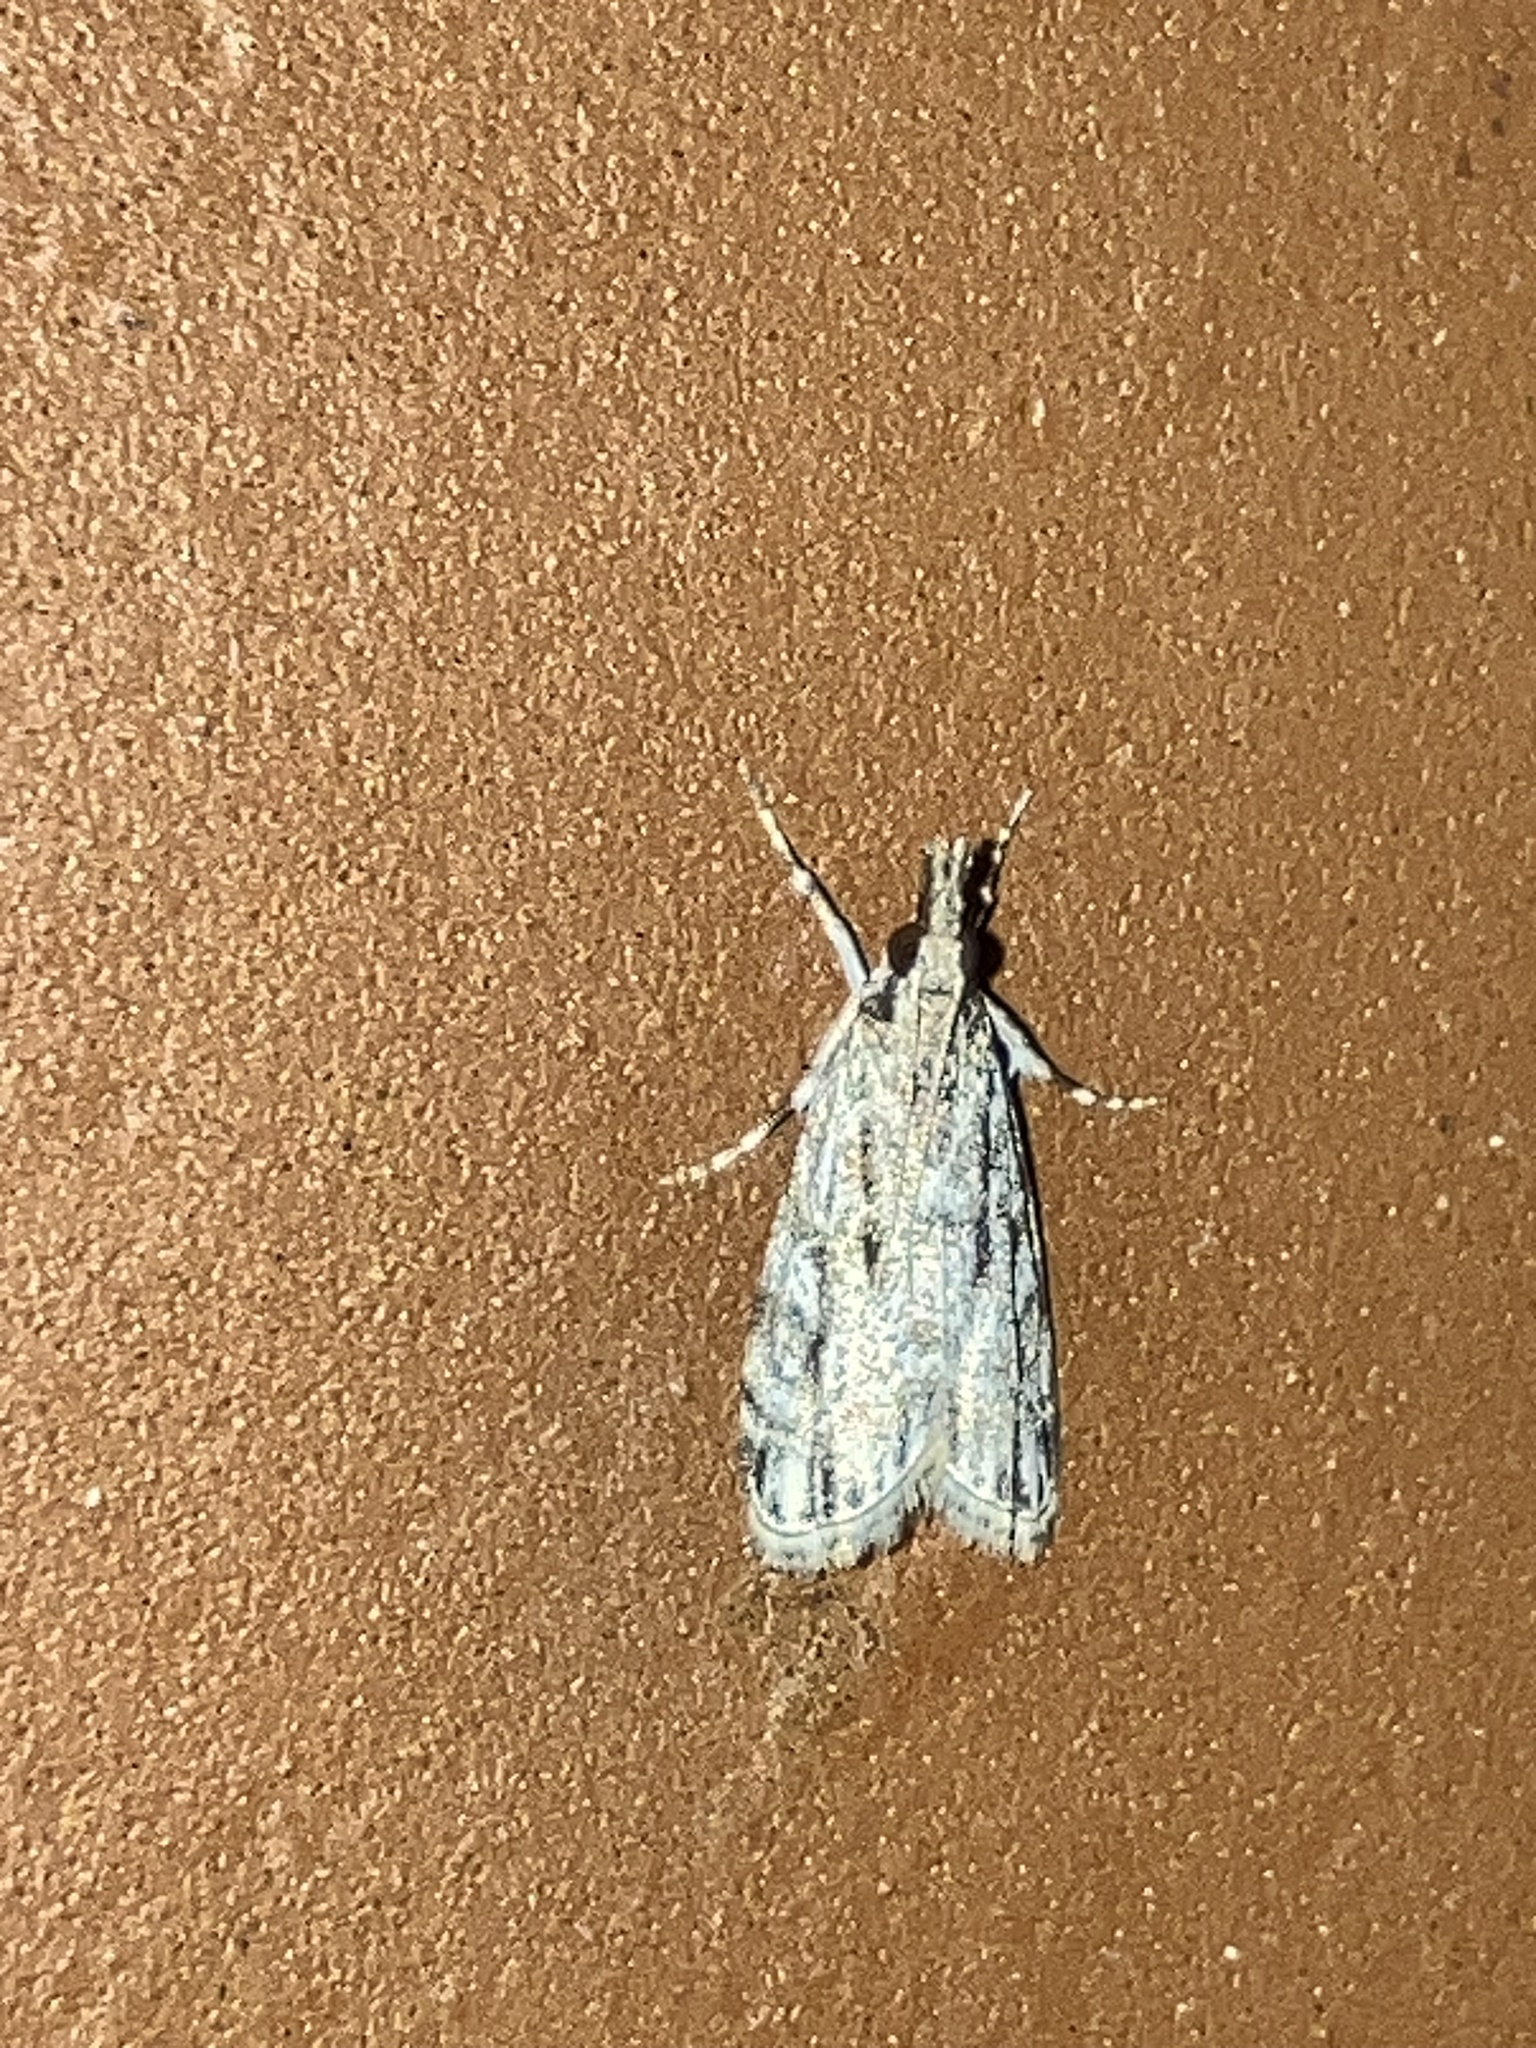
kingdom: Animalia
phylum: Arthropoda
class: Insecta
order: Lepidoptera
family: Crambidae
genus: Eudonia
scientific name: Eudonia strigalis
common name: Striped eudonia moth
